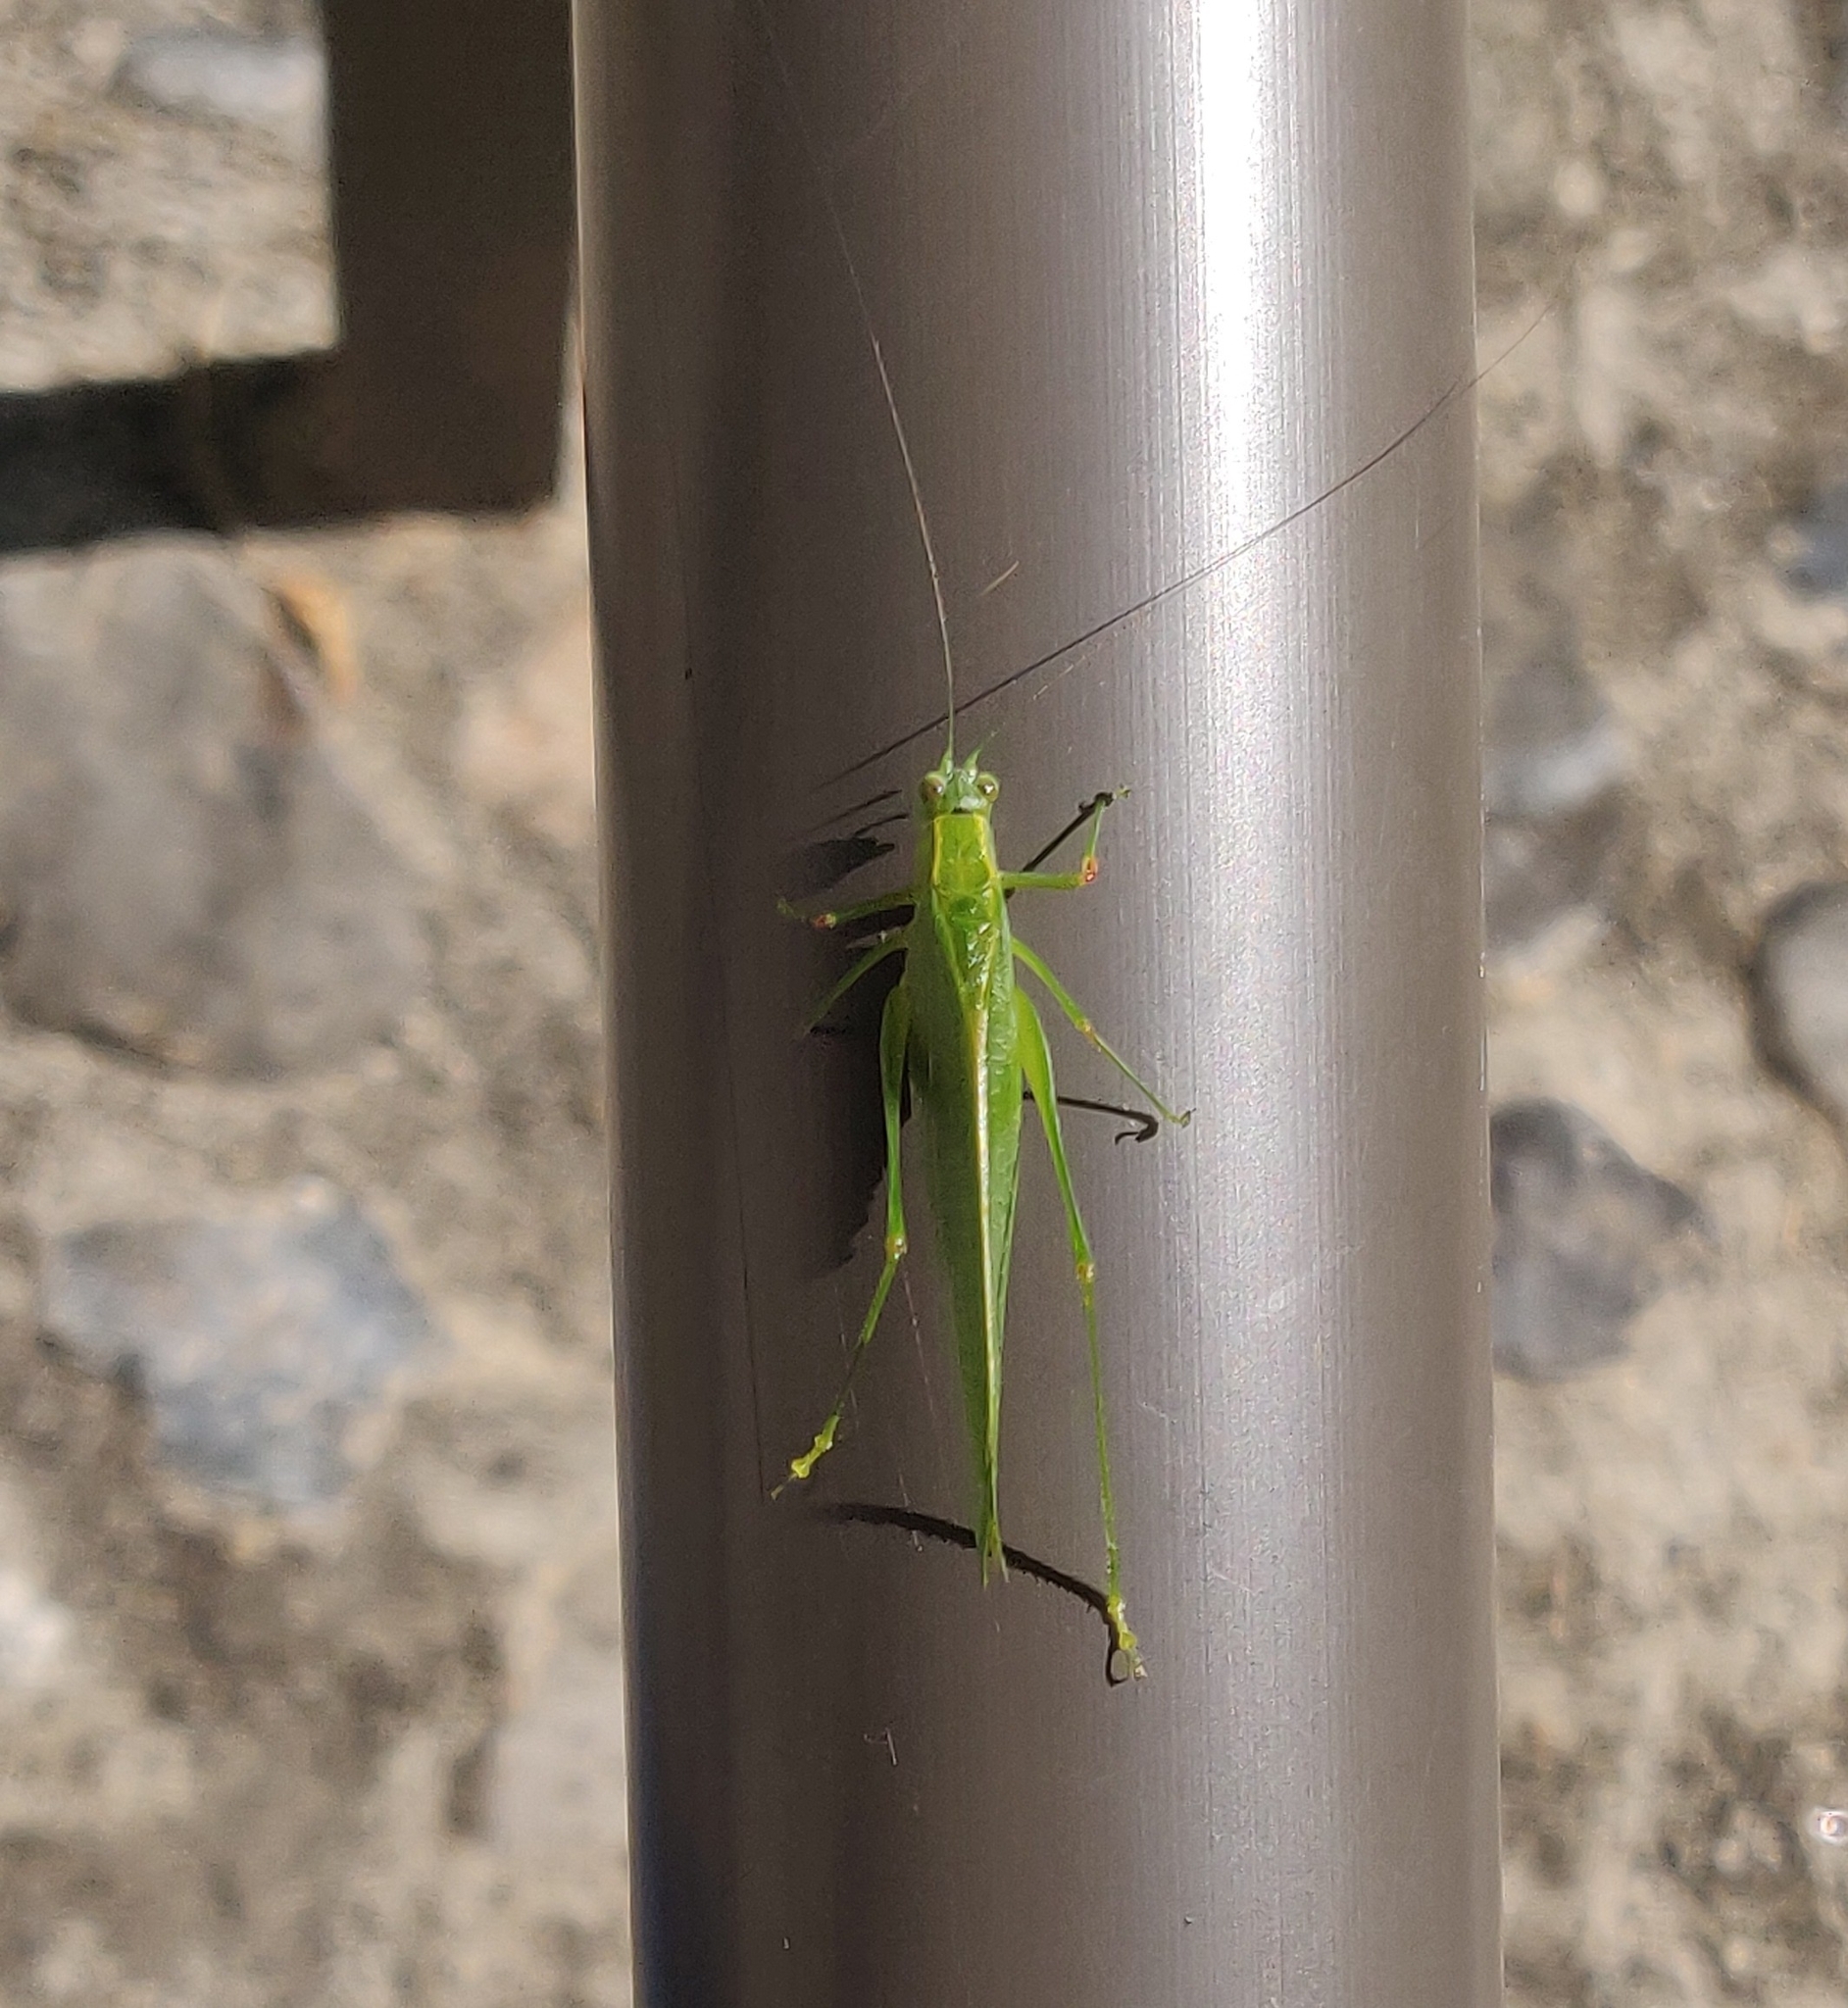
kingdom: Animalia
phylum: Arthropoda
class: Insecta
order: Orthoptera
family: Tettigoniidae
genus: Isopsera
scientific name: Isopsera sulcata
